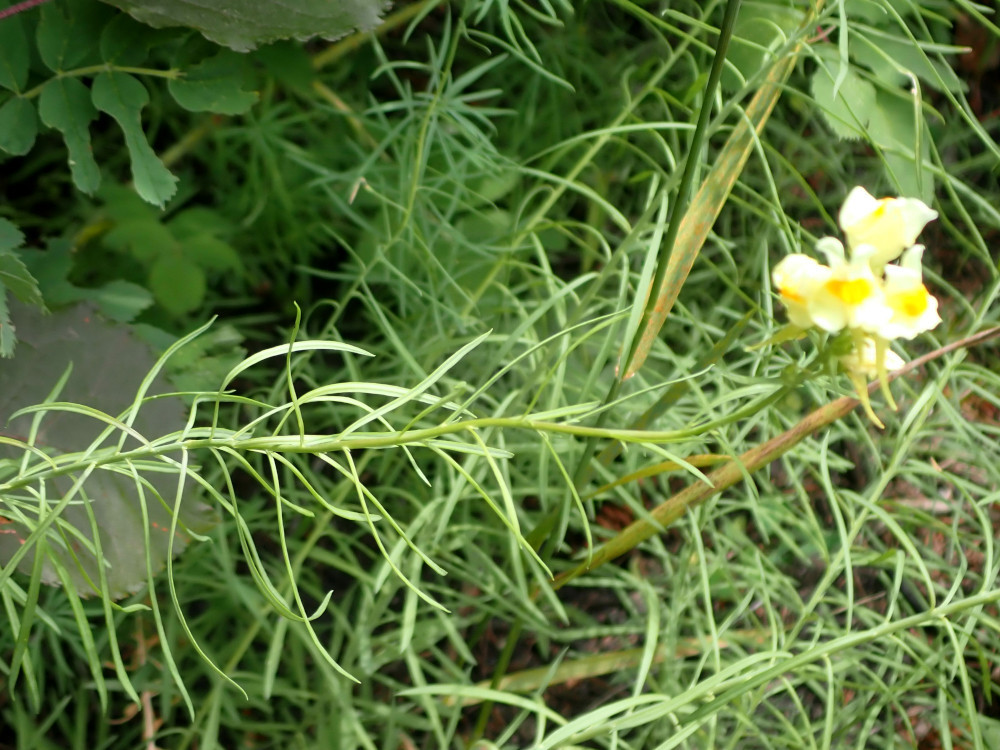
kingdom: Plantae
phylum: Tracheophyta
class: Magnoliopsida
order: Lamiales
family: Plantaginaceae
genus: Linaria
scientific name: Linaria vulgaris
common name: Butter and eggs
